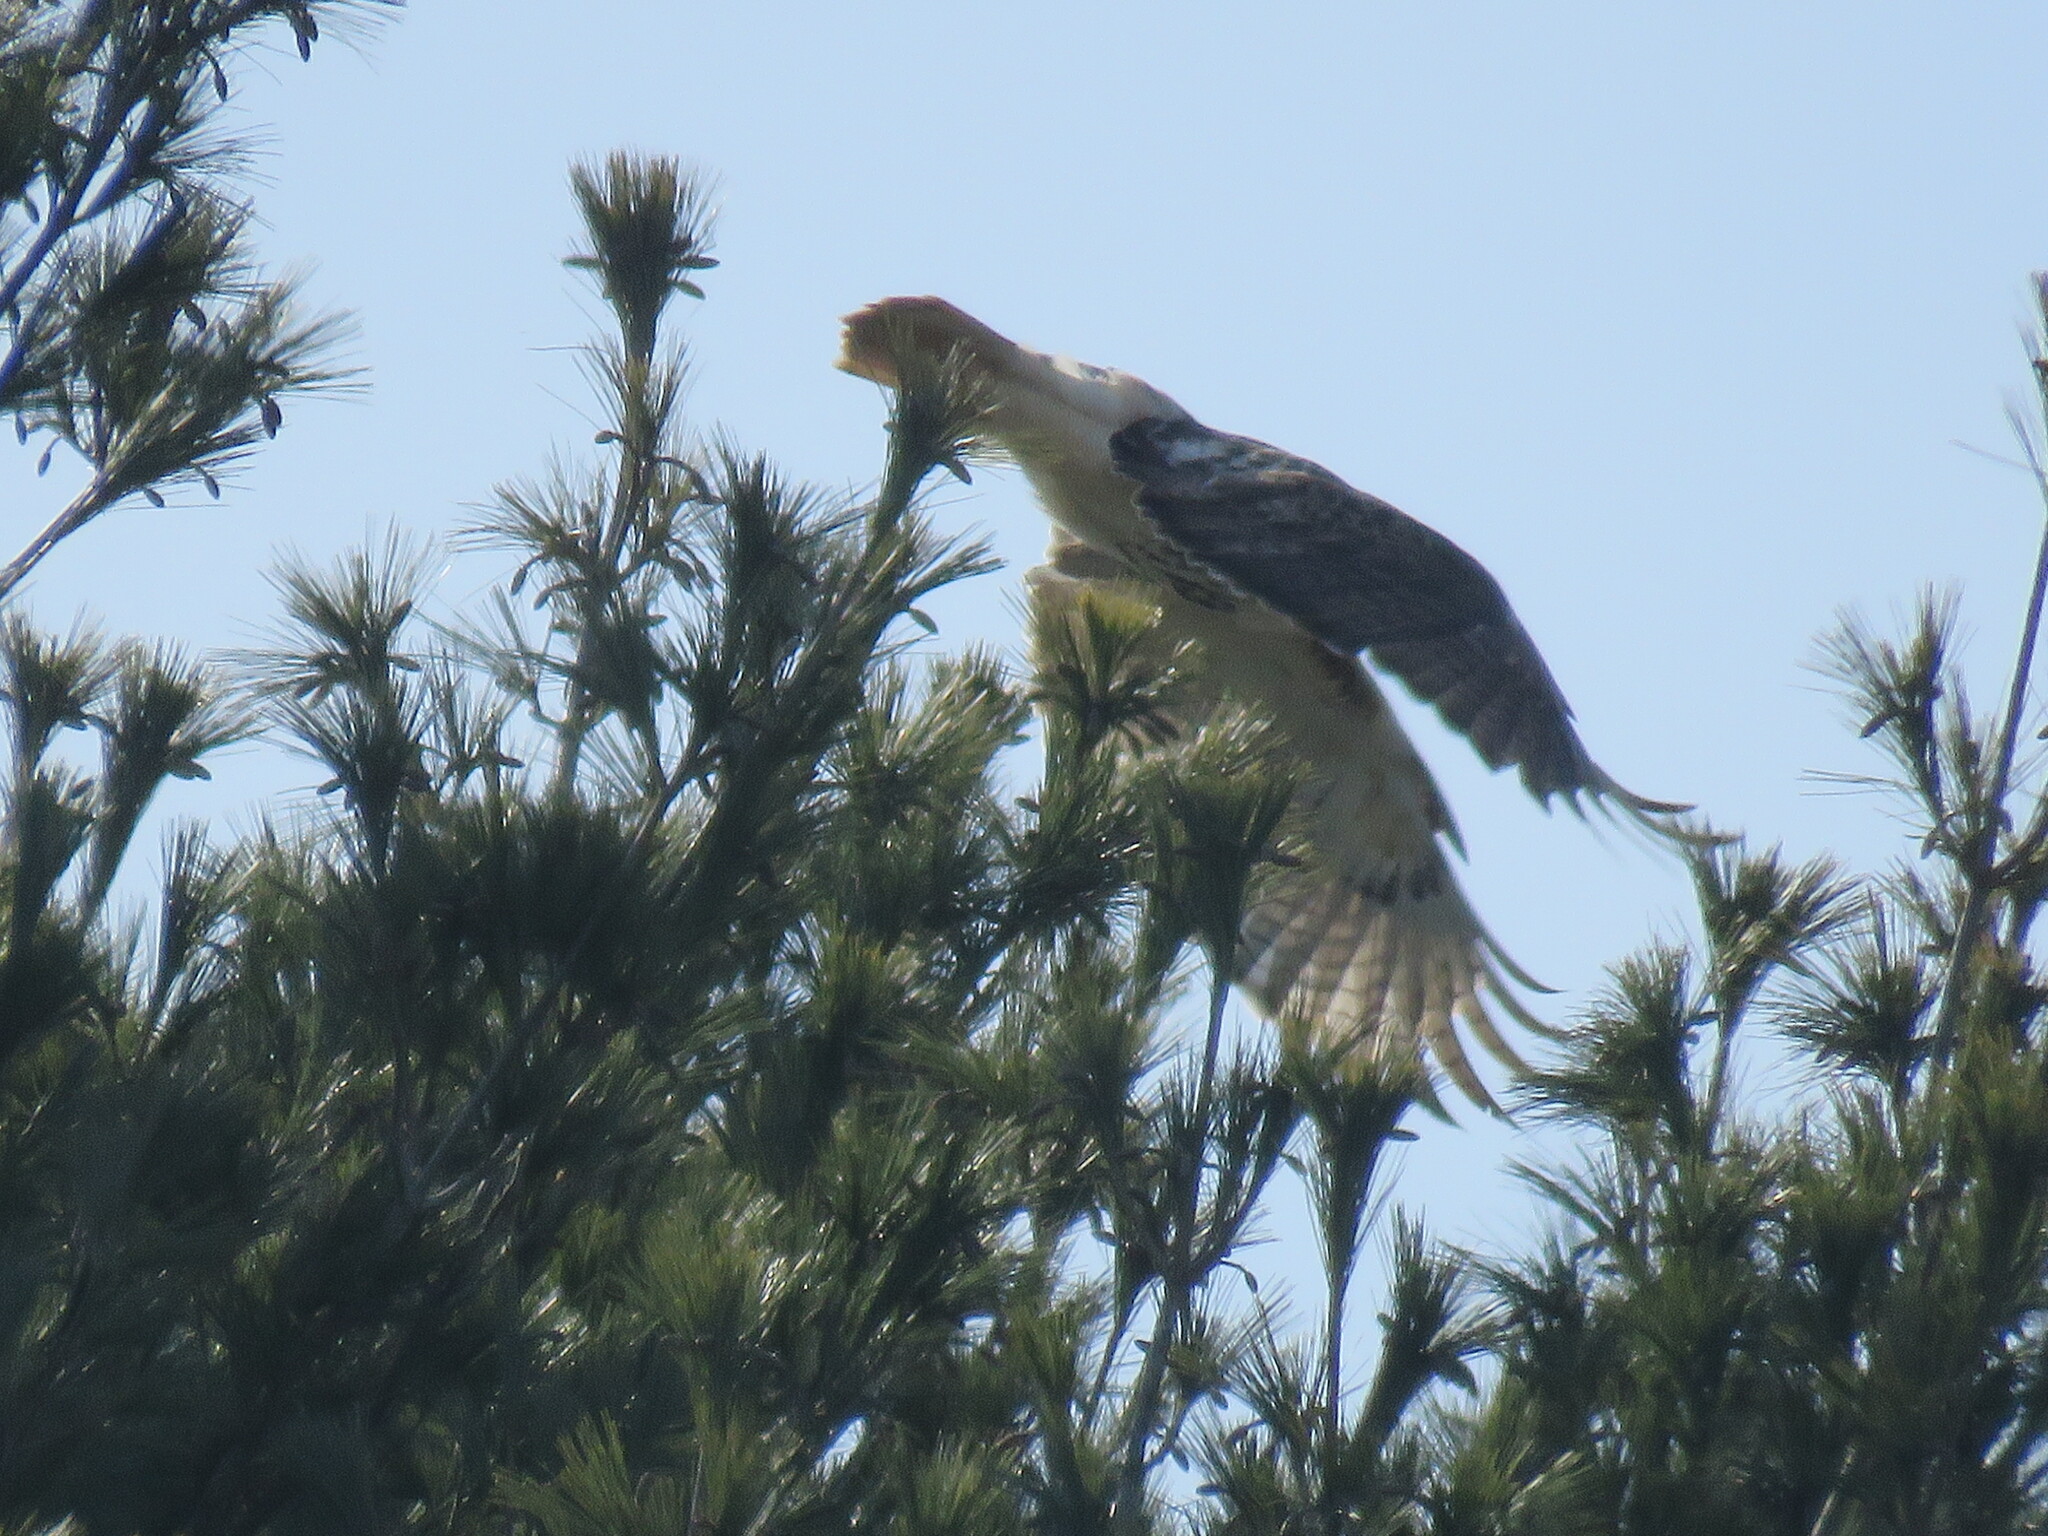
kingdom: Animalia
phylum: Chordata
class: Aves
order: Accipitriformes
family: Accipitridae
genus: Buteo
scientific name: Buteo jamaicensis
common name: Red-tailed hawk
